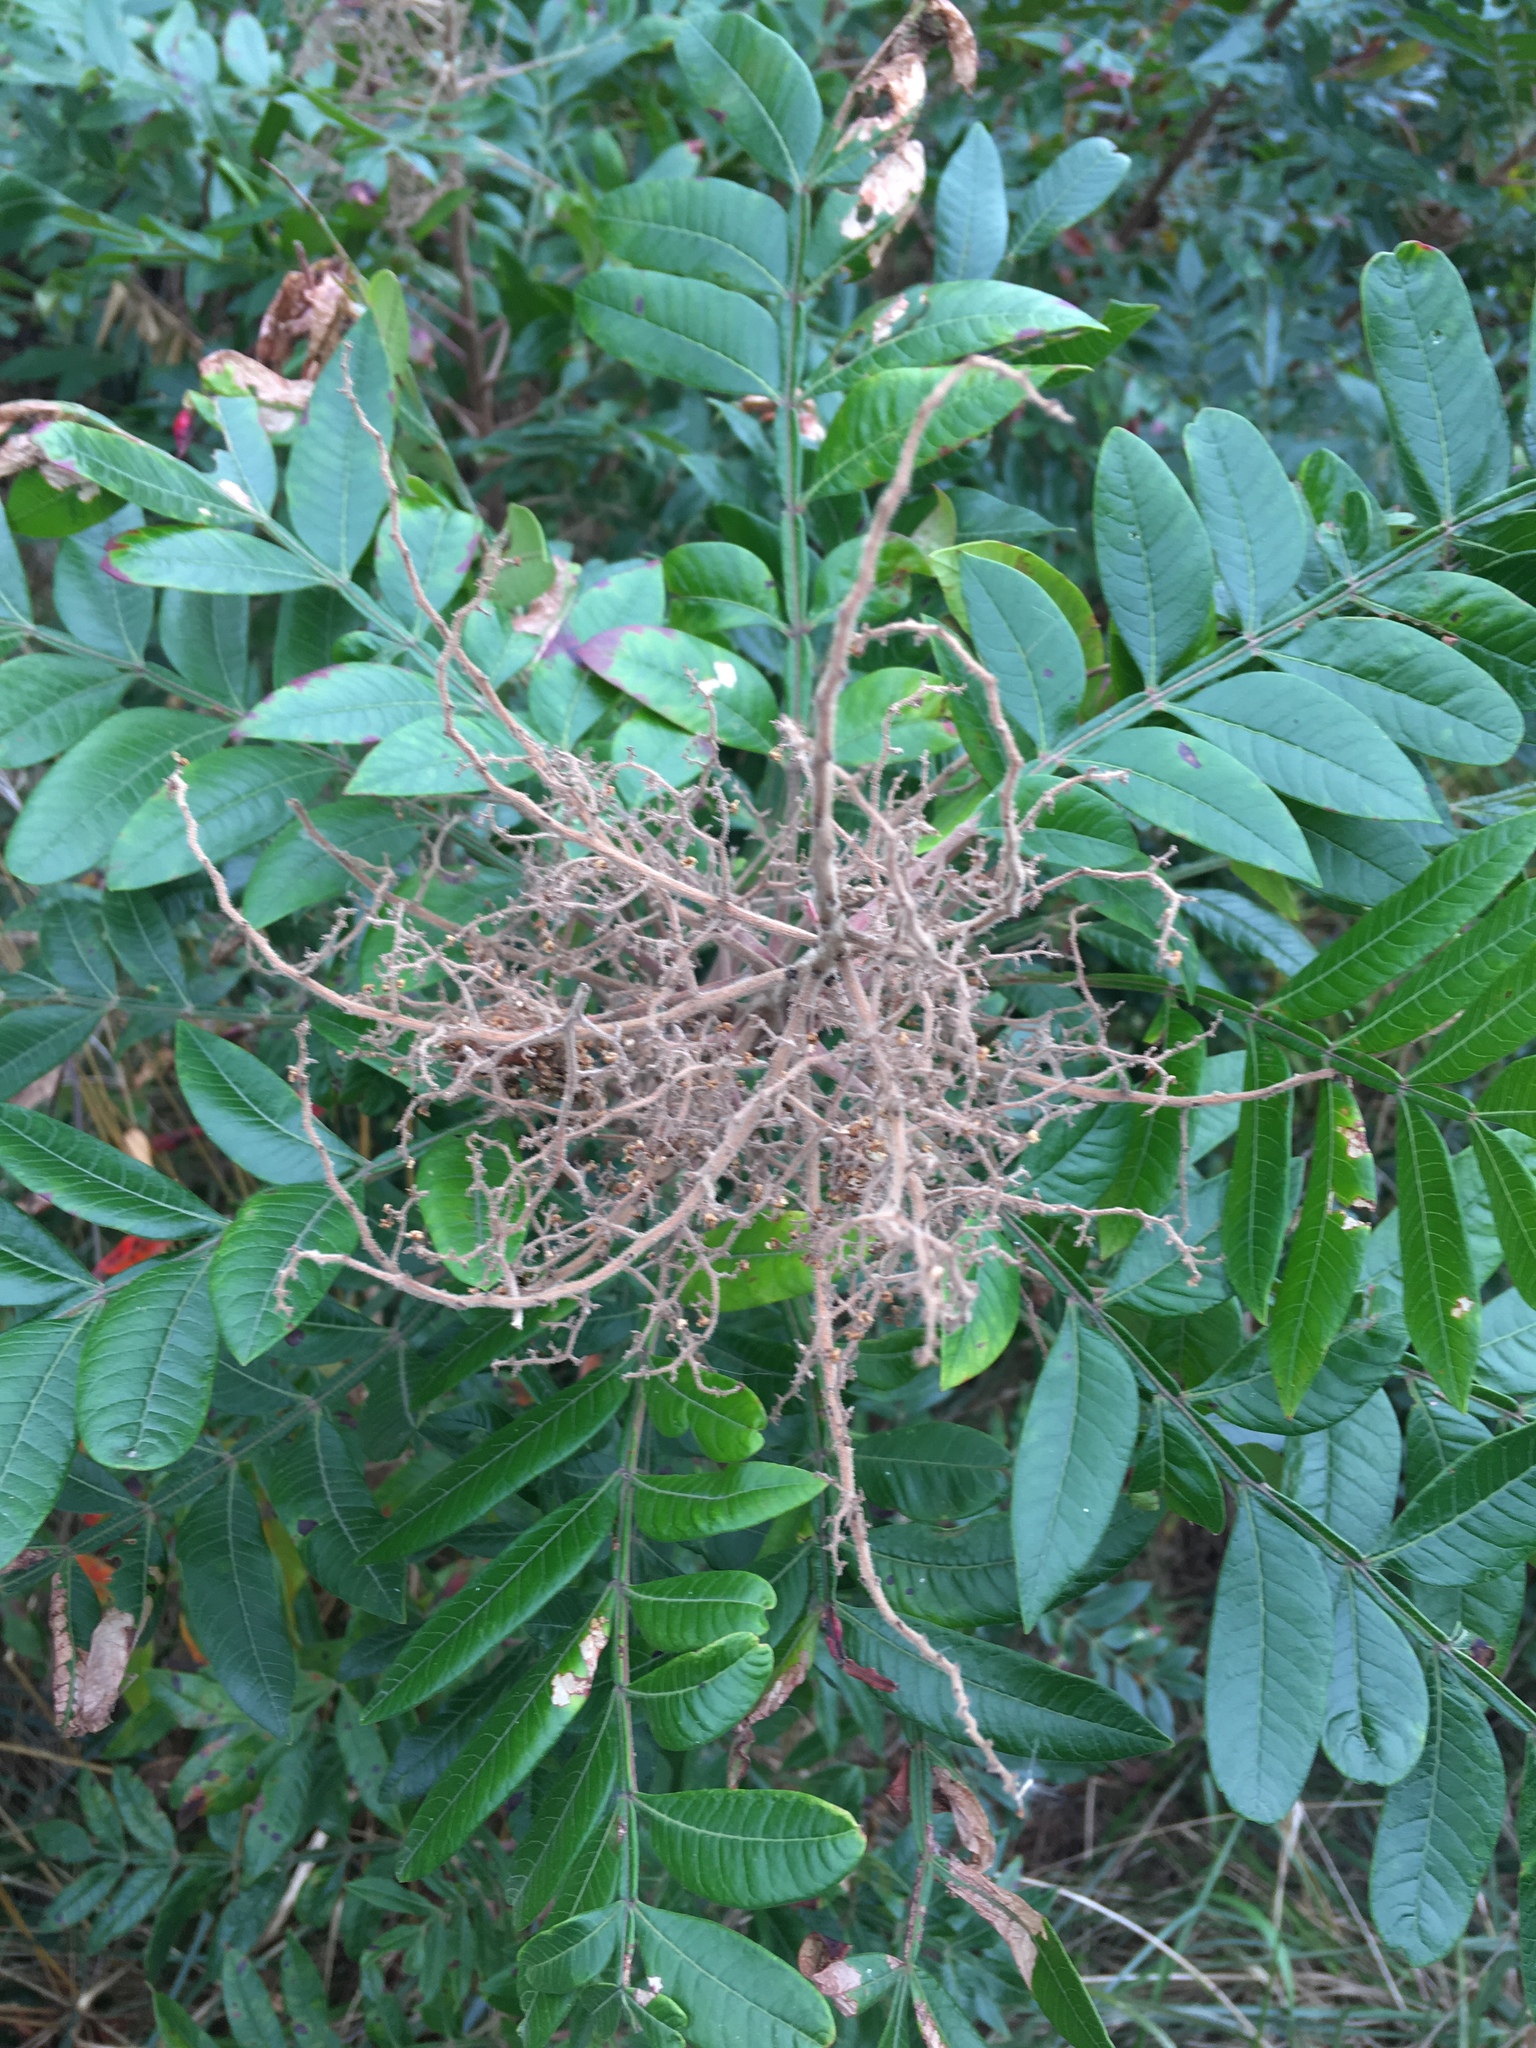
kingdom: Plantae
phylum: Tracheophyta
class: Magnoliopsida
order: Sapindales
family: Anacardiaceae
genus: Rhus
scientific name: Rhus copallina
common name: Shining sumac
